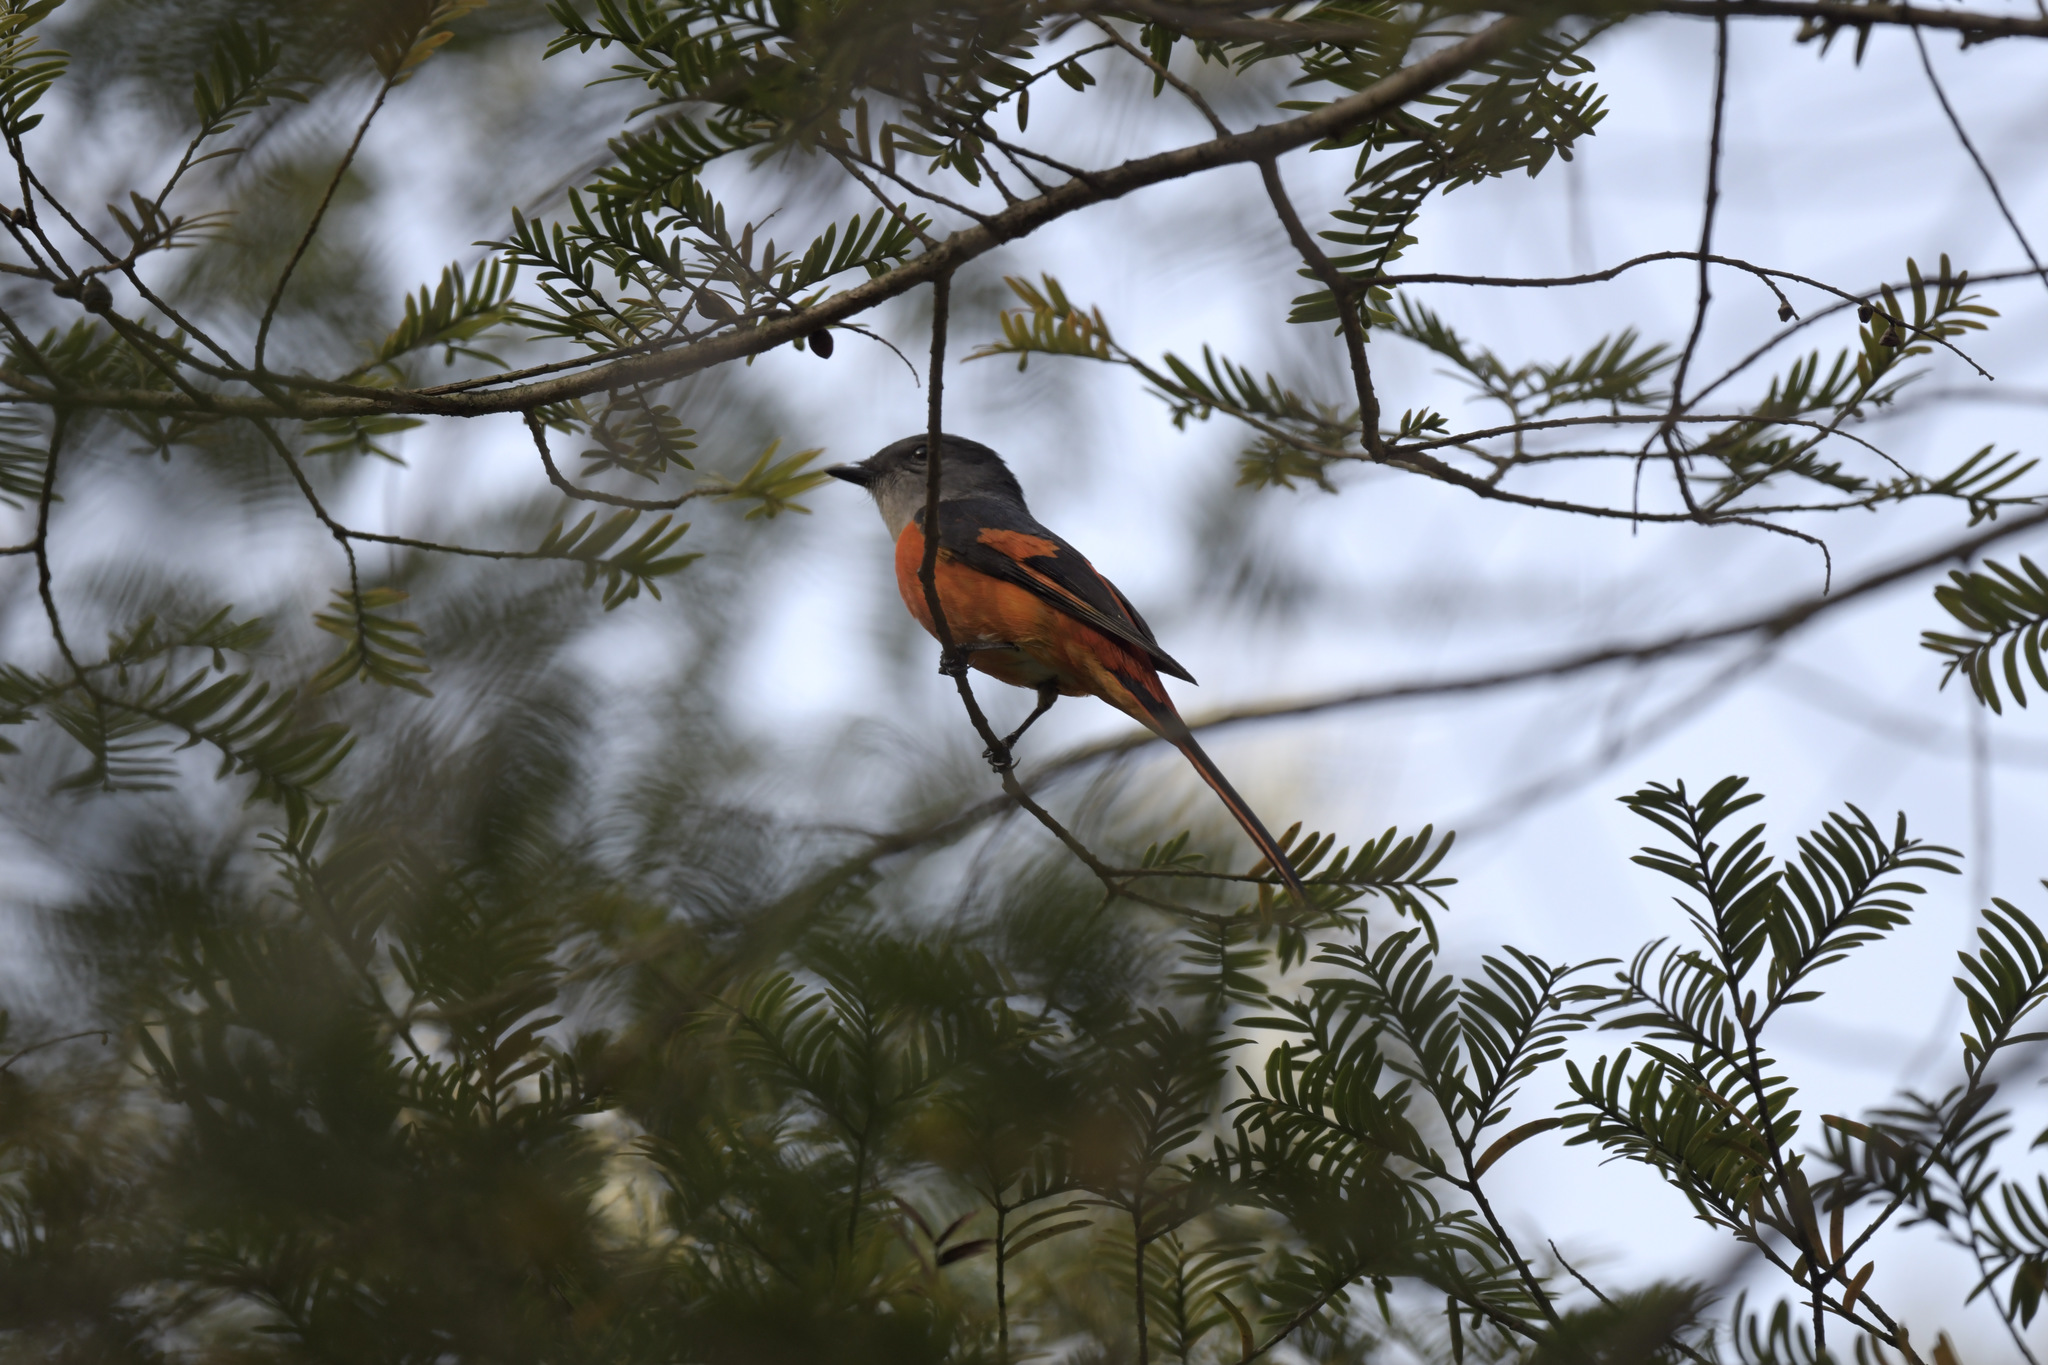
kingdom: Animalia
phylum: Chordata
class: Aves
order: Passeriformes
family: Campephagidae
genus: Pericrocotus
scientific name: Pericrocotus solaris
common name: Grey-chinned minivet
